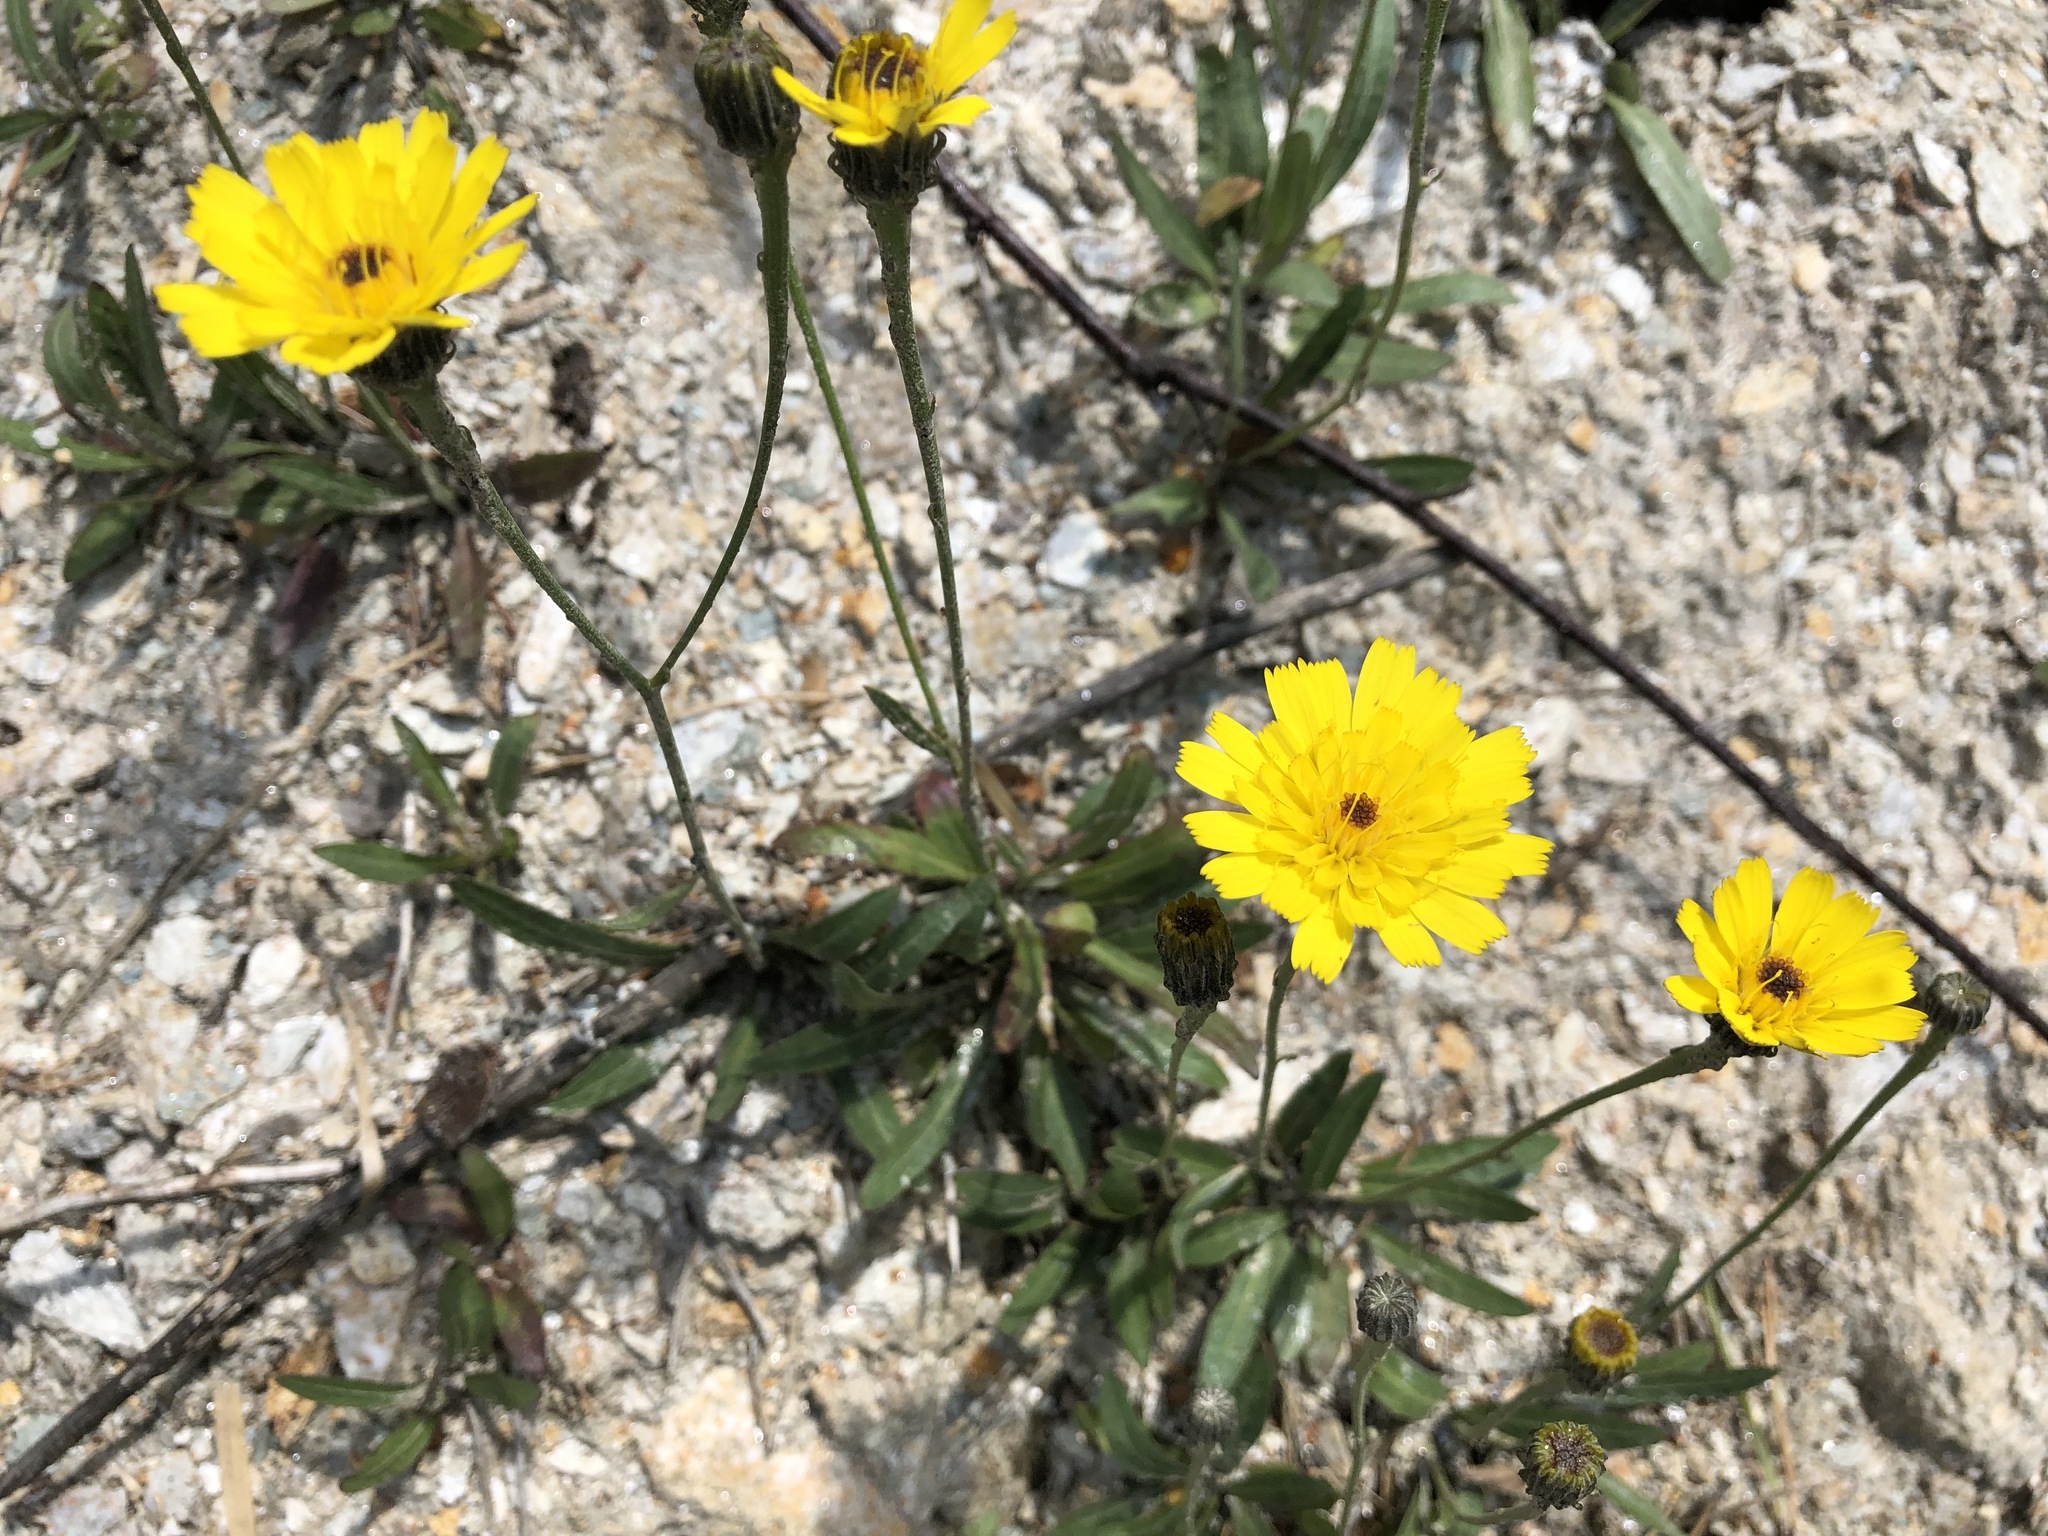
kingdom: Plantae
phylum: Tracheophyta
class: Magnoliopsida
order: Asterales
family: Asteraceae
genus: Tolpis
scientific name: Tolpis staticifolia
